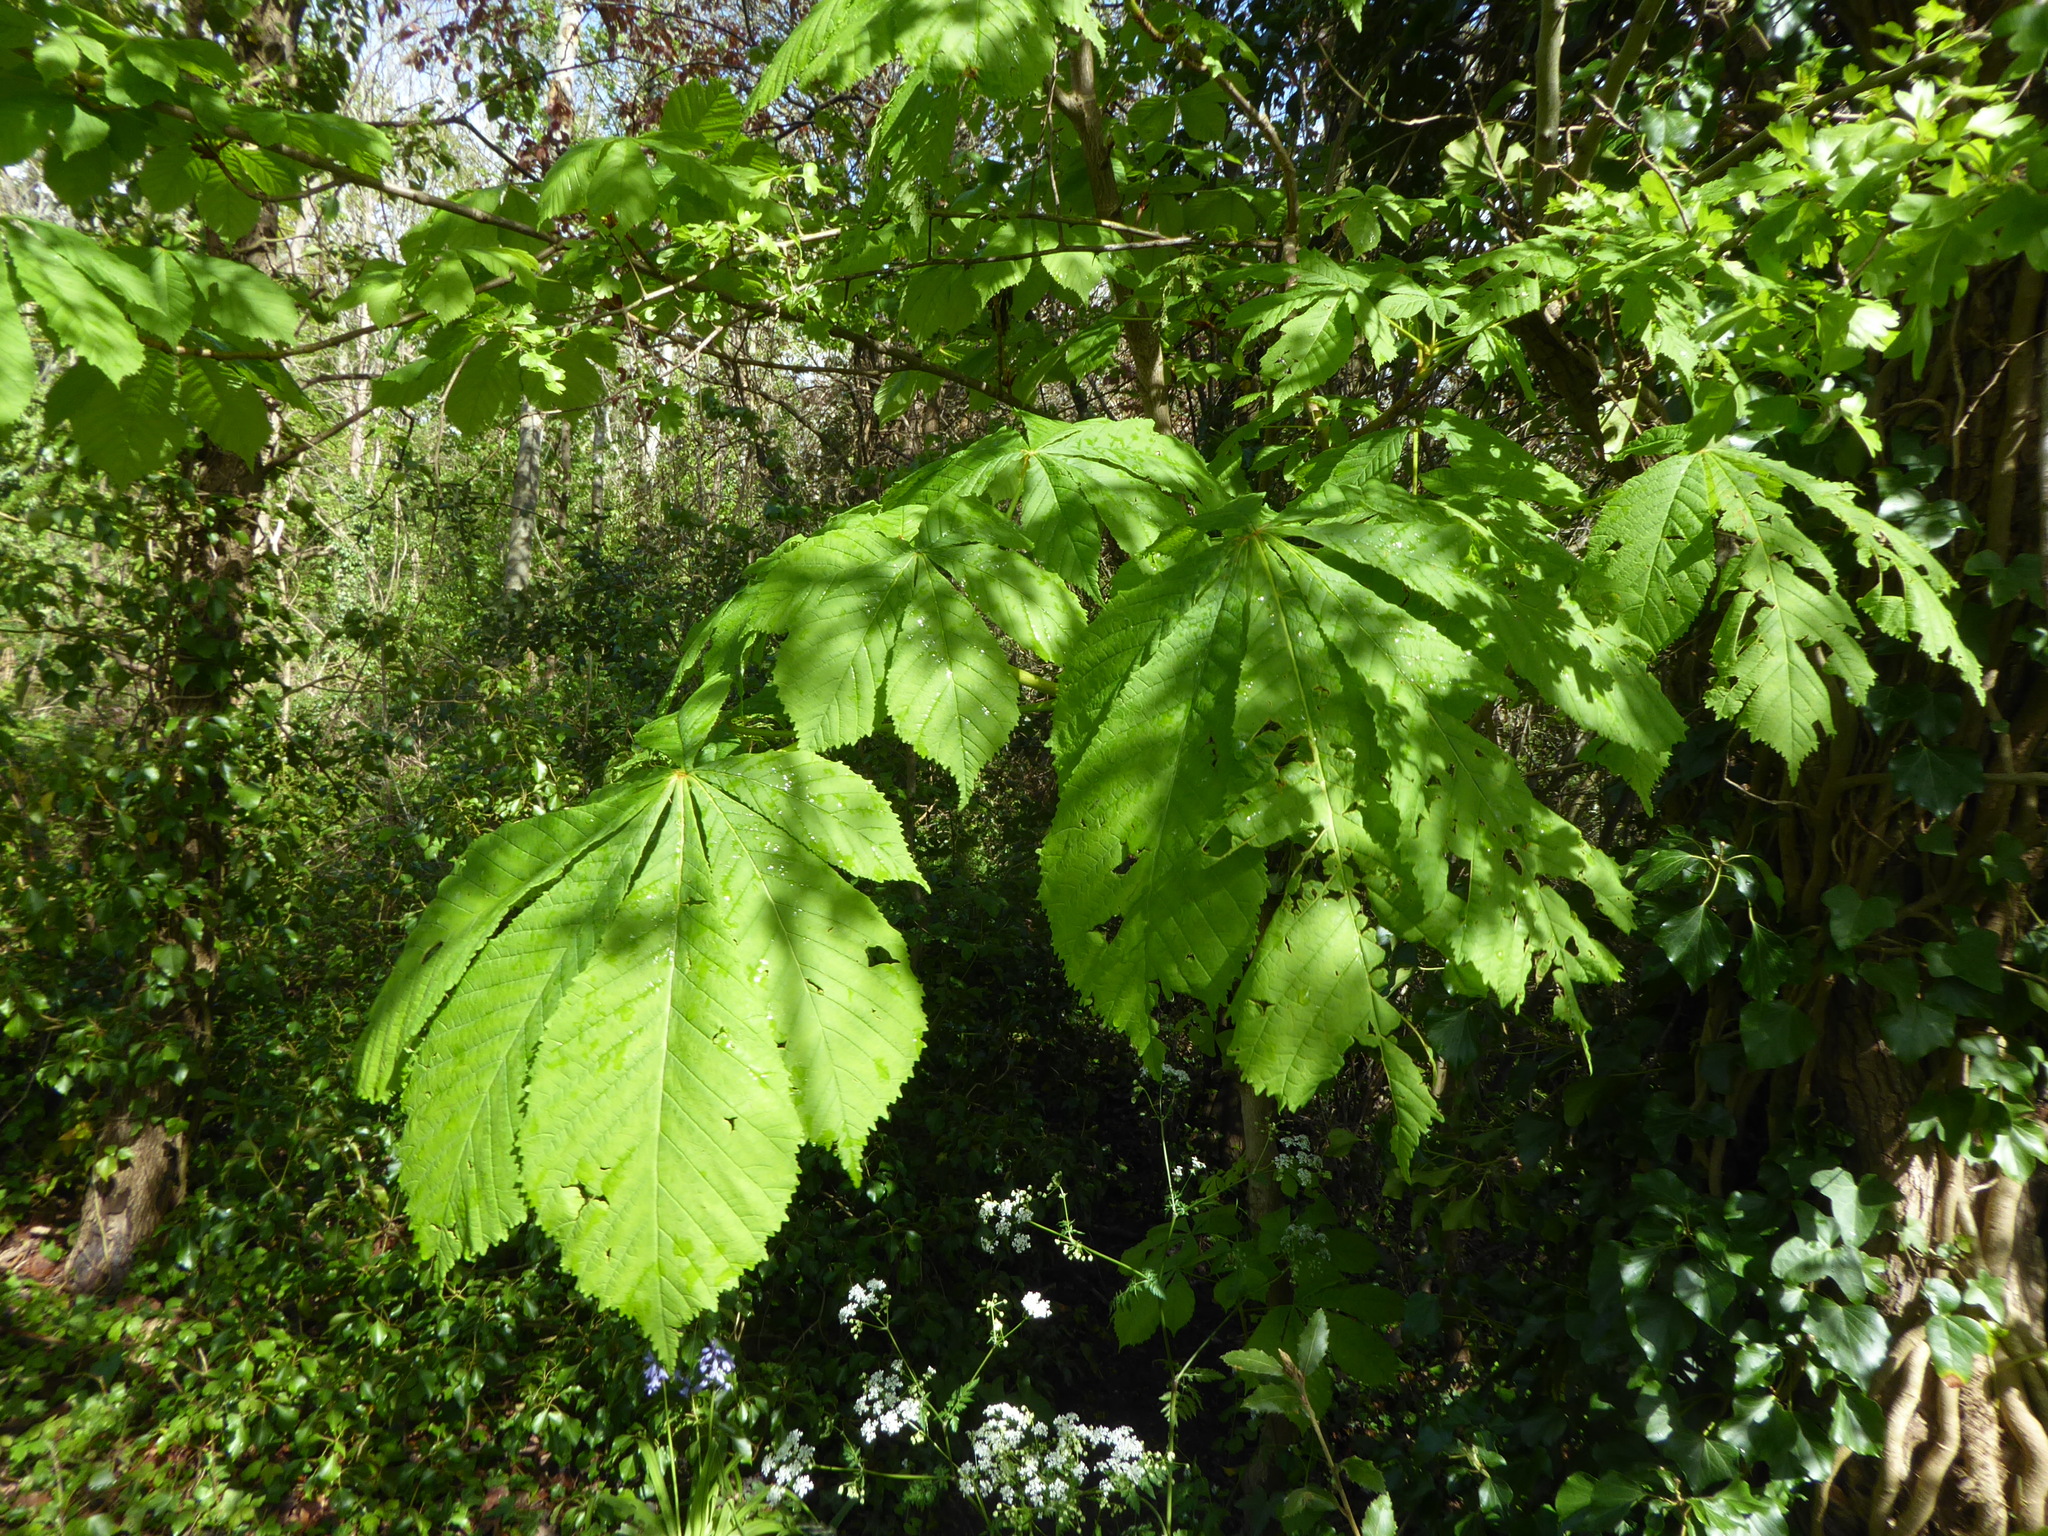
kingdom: Plantae
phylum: Tracheophyta
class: Magnoliopsida
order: Sapindales
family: Sapindaceae
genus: Aesculus
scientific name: Aesculus hippocastanum
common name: Horse-chestnut
